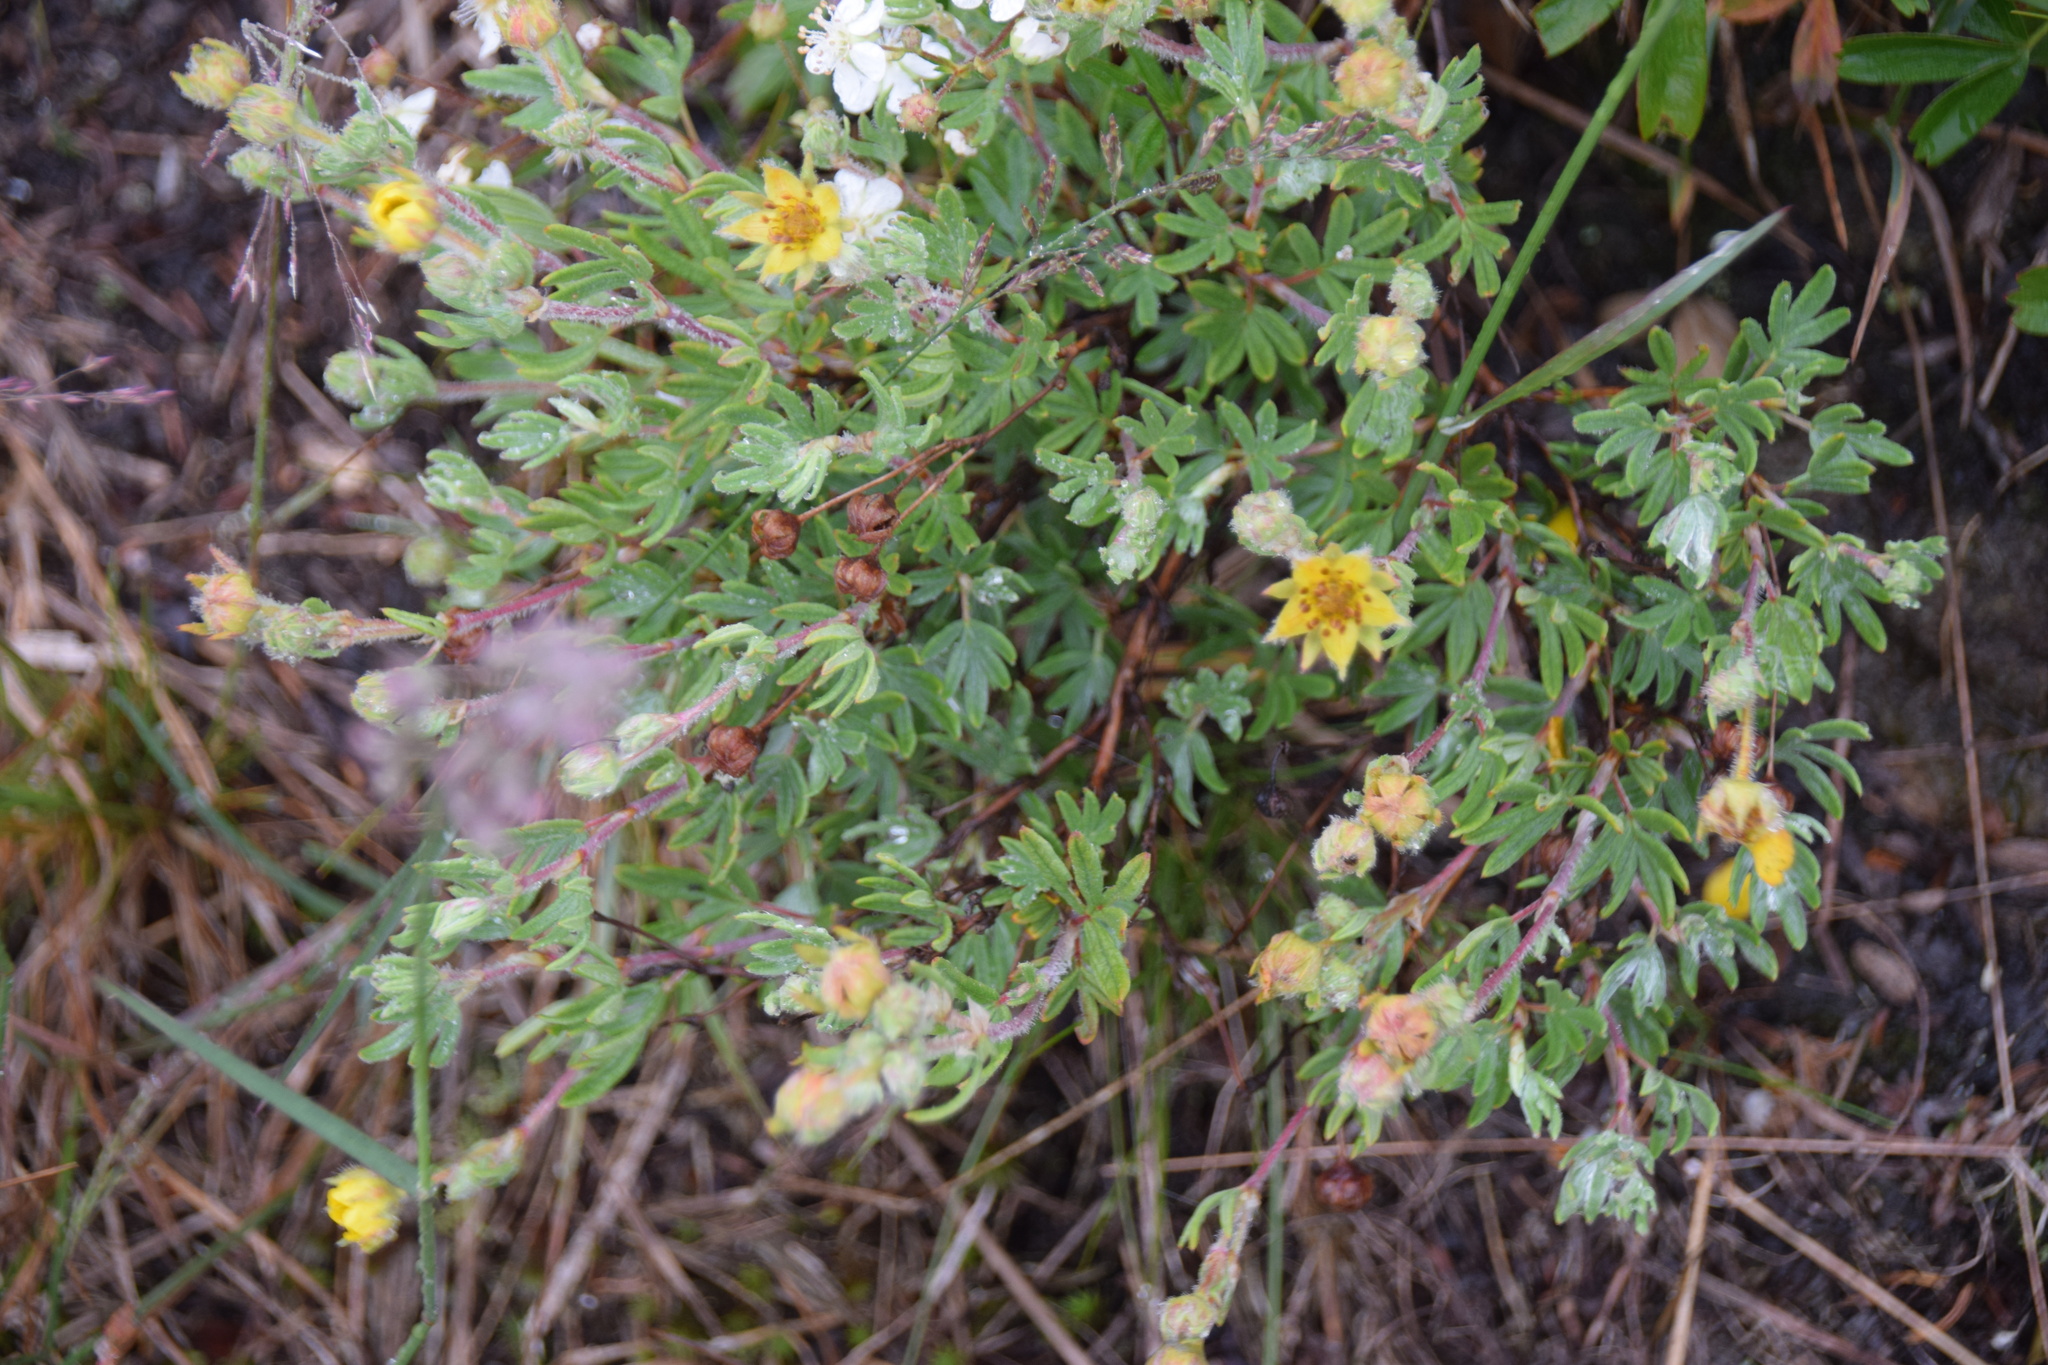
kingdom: Plantae
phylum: Tracheophyta
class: Magnoliopsida
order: Rosales
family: Rosaceae
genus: Dasiphora
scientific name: Dasiphora fruticosa
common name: Shrubby cinquefoil
